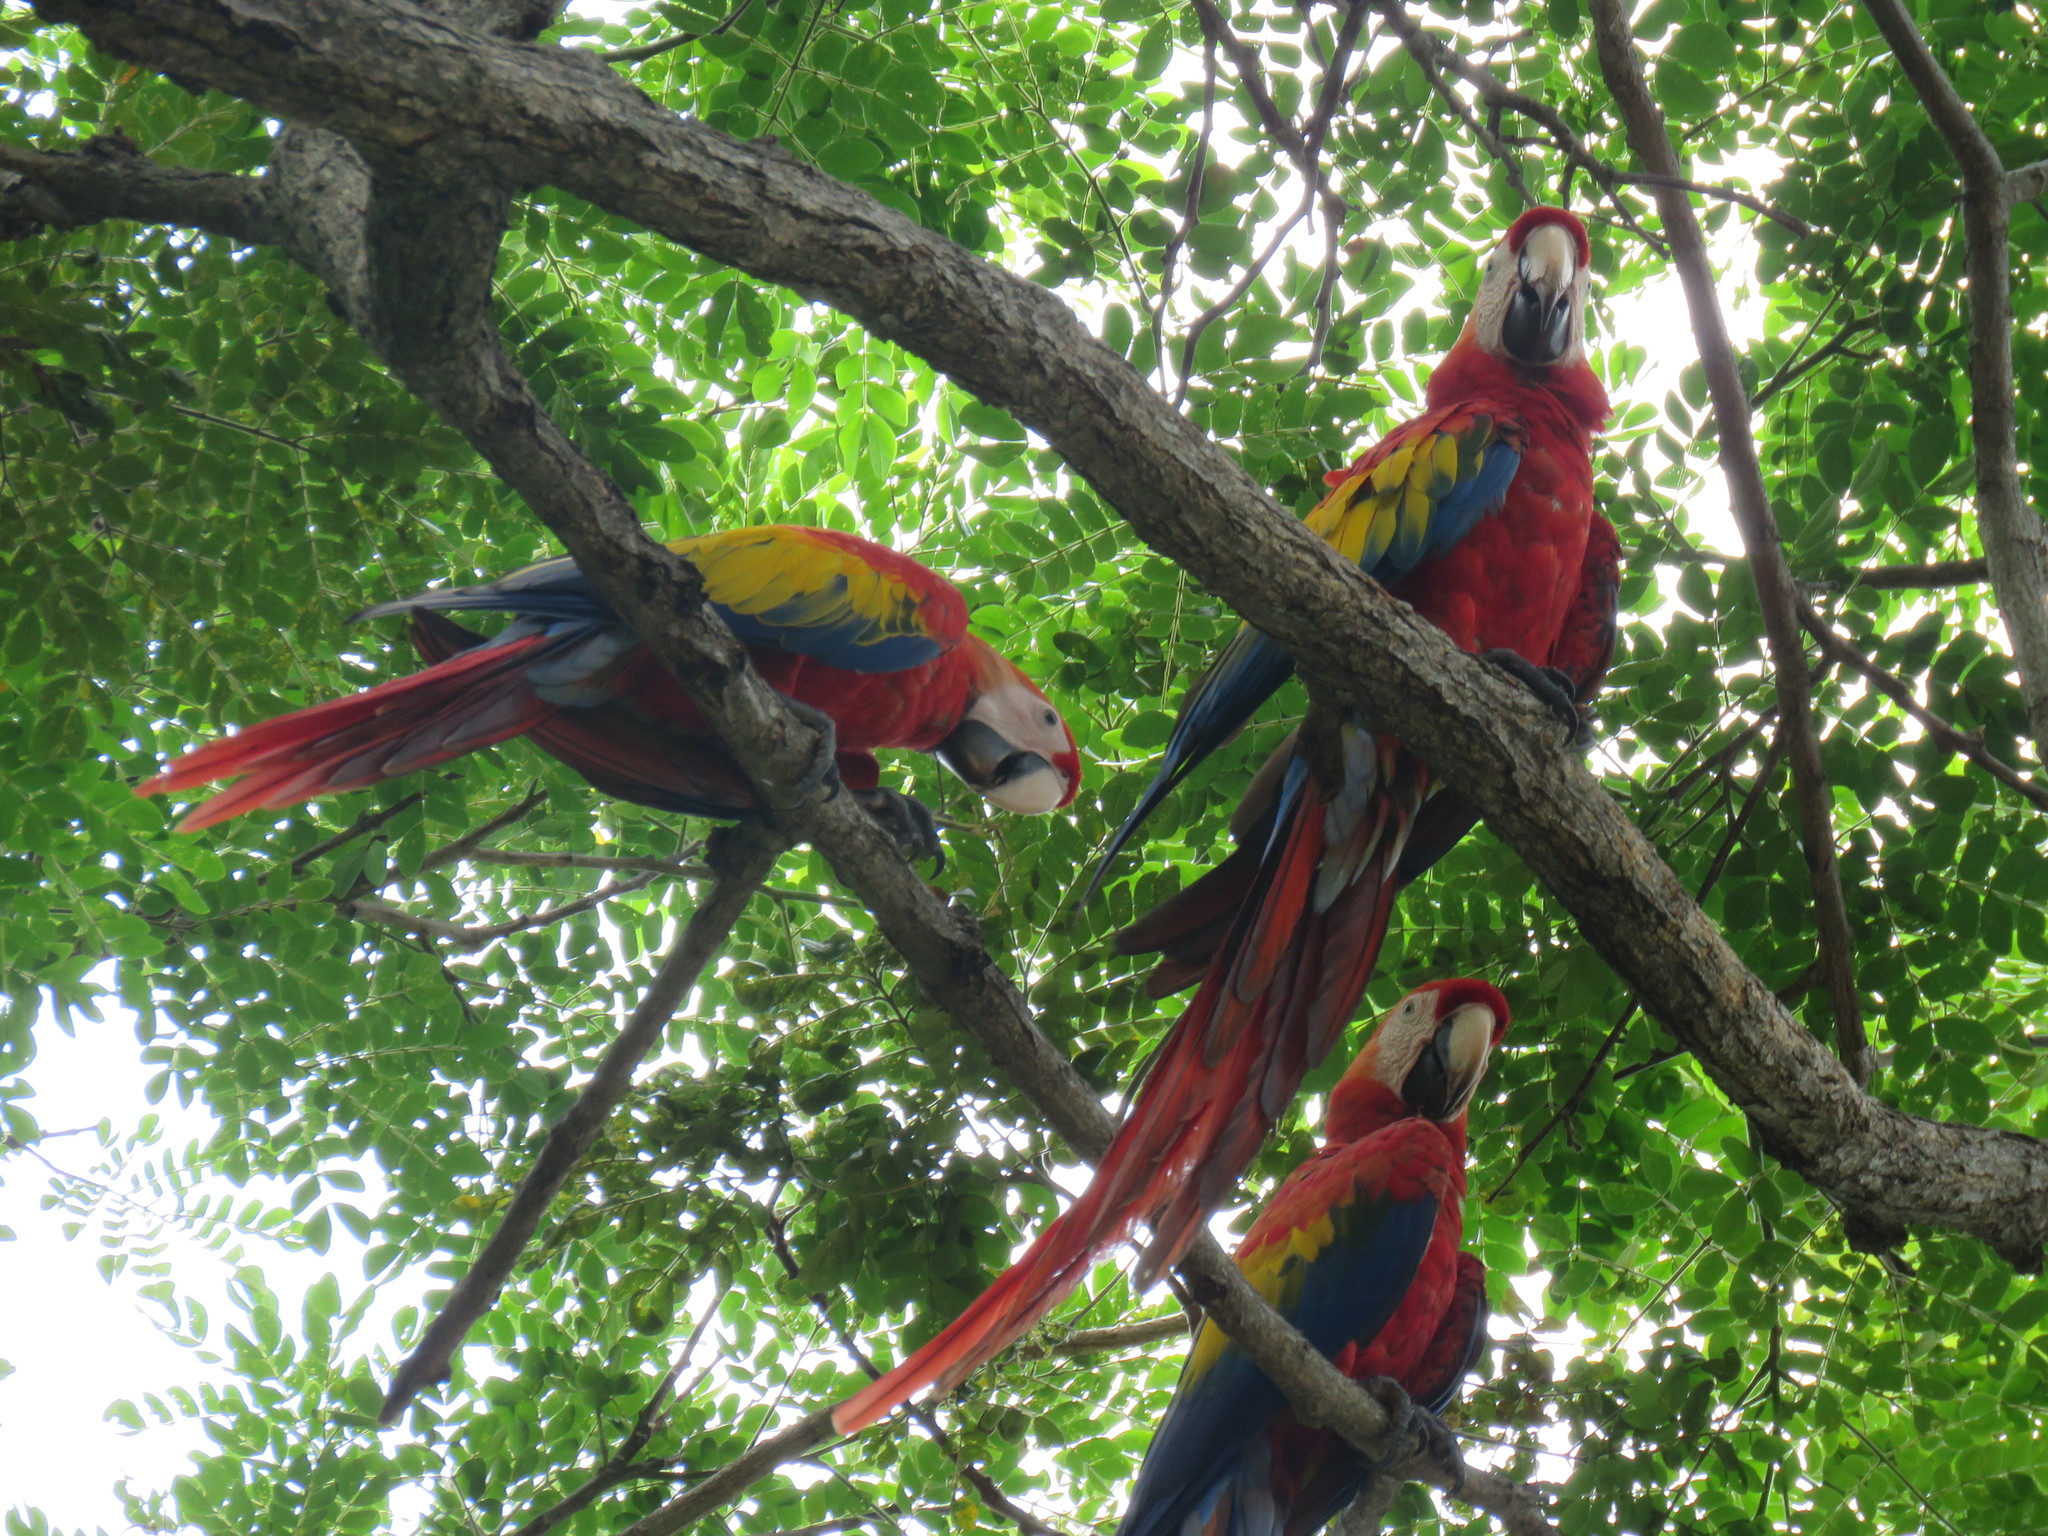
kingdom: Animalia
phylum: Chordata
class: Aves
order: Psittaciformes
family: Psittacidae
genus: Ara
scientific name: Ara macao
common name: Scarlet macaw
